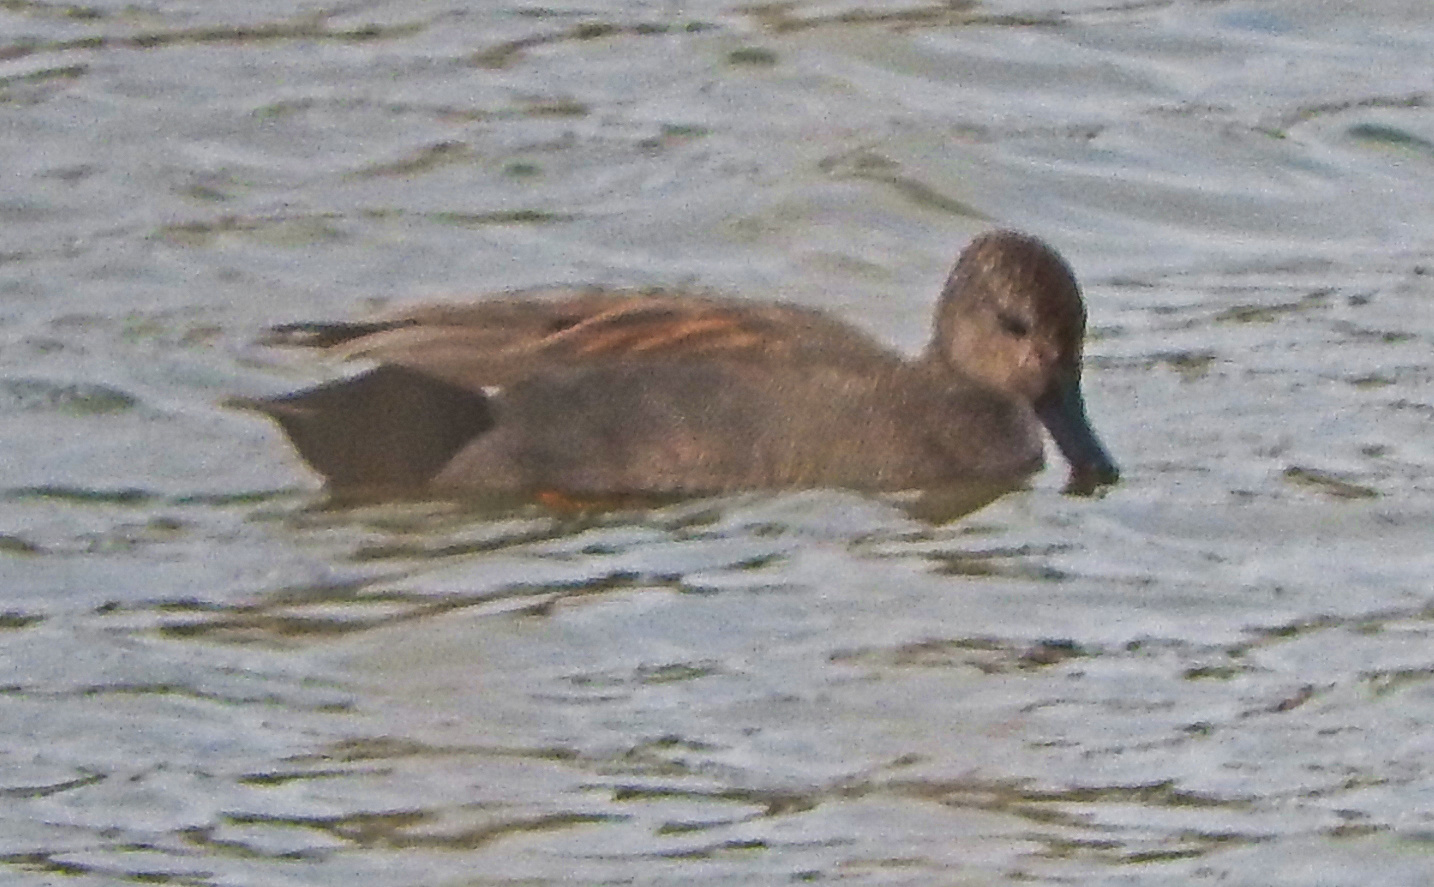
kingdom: Animalia
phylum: Chordata
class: Aves
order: Anseriformes
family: Anatidae
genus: Mareca
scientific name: Mareca strepera
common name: Gadwall
